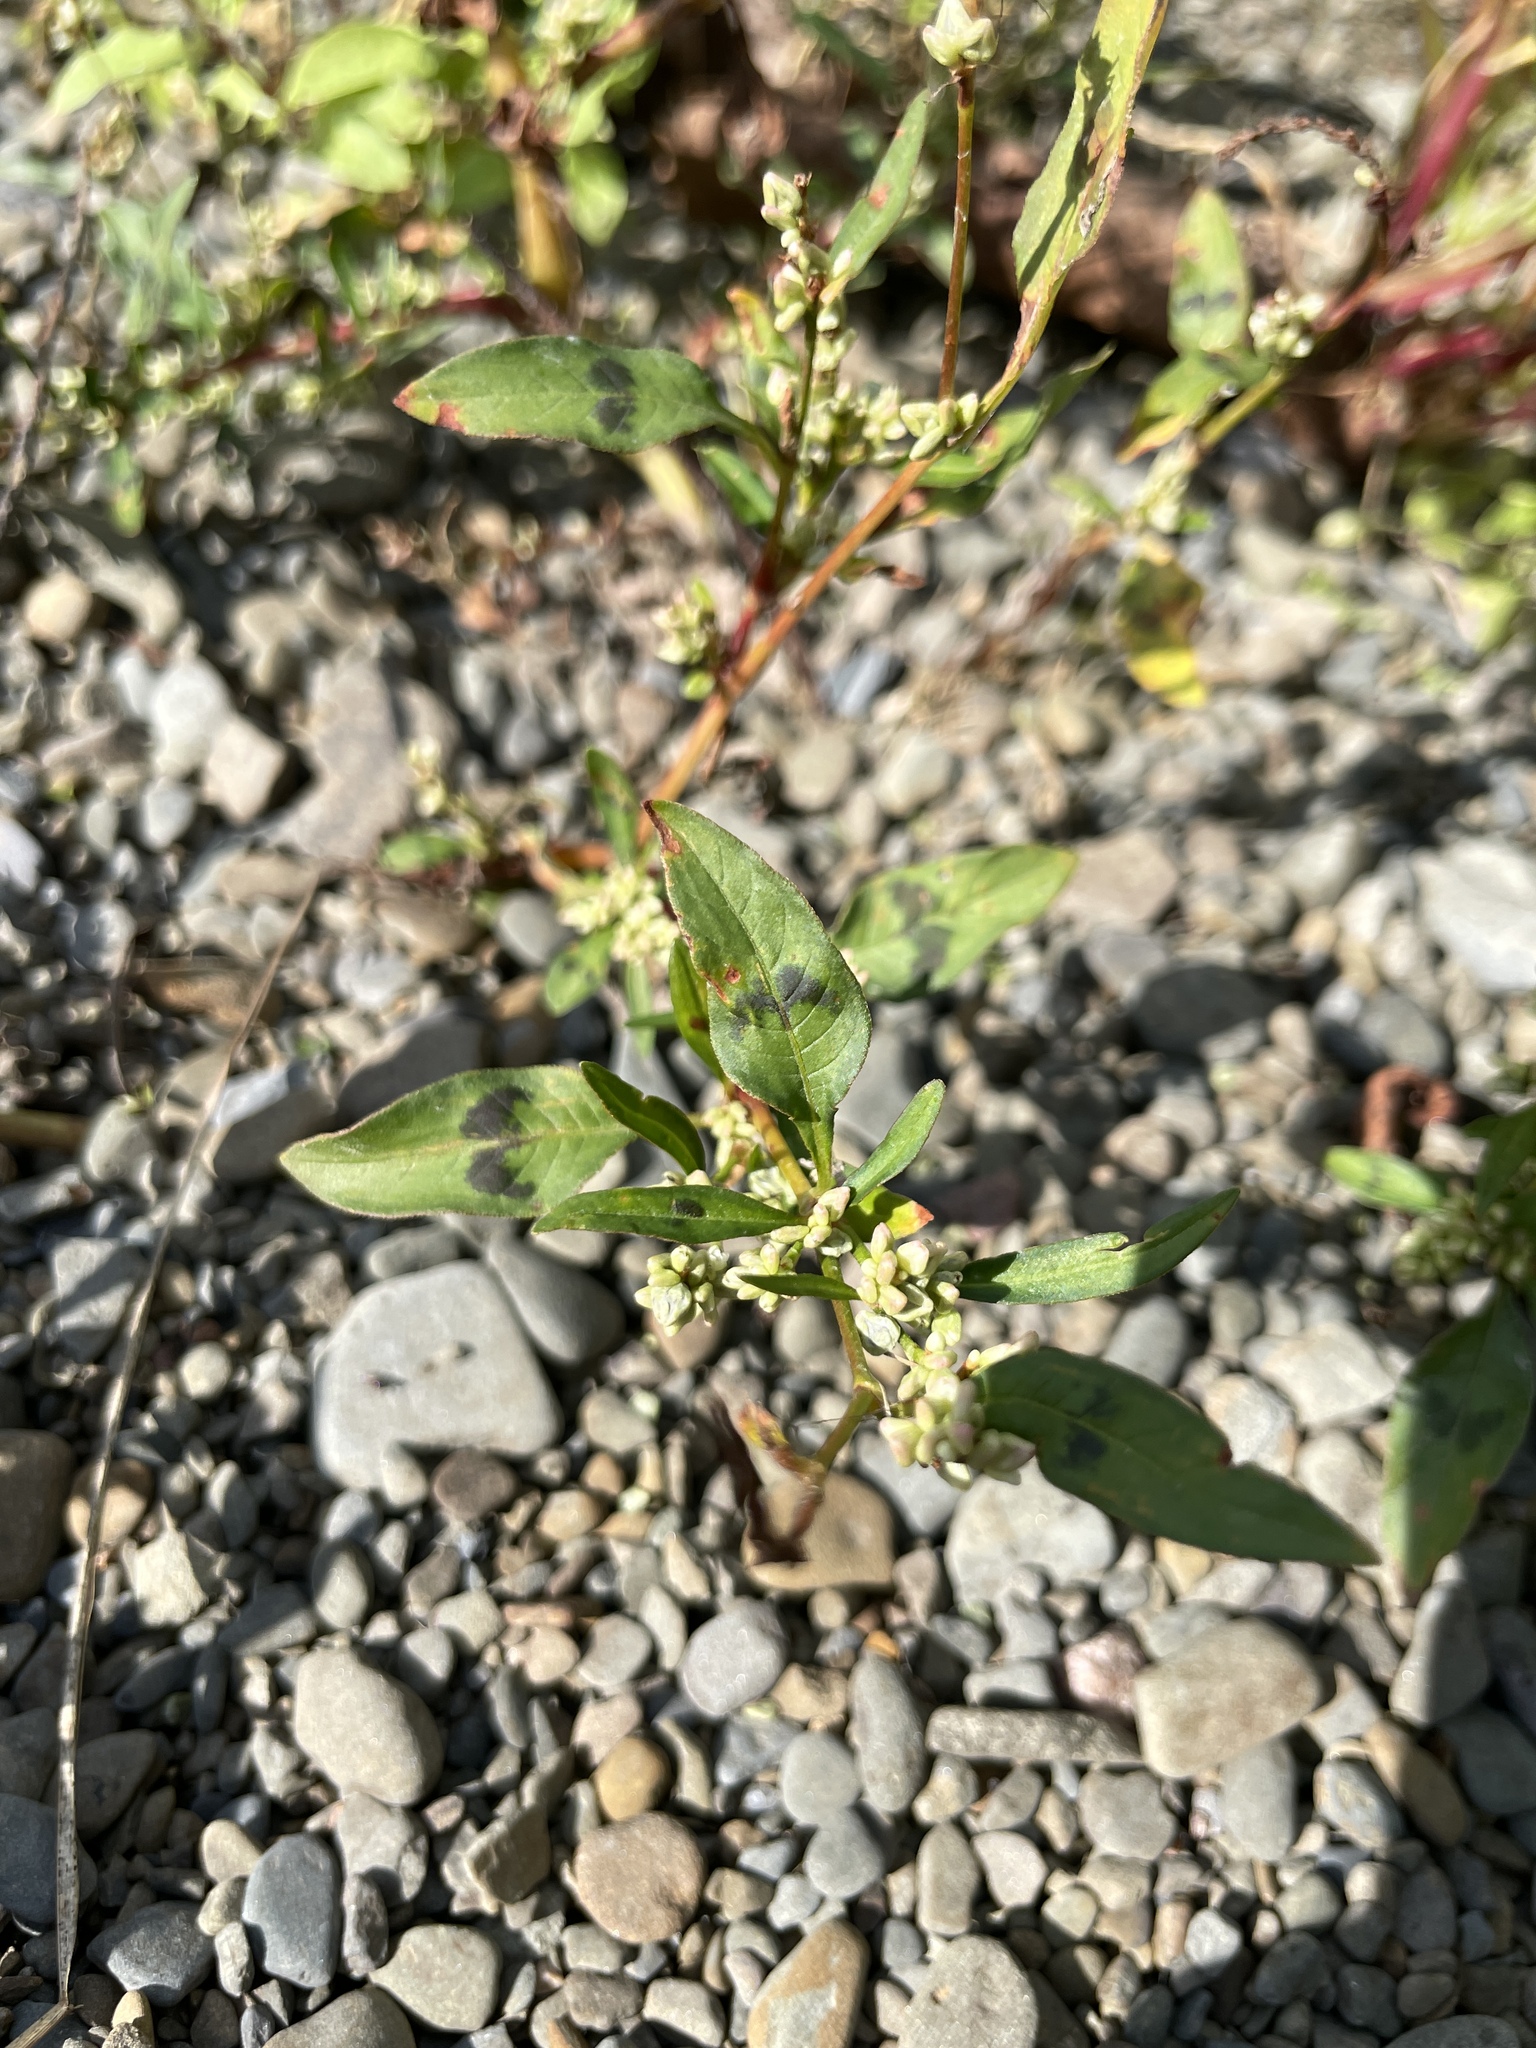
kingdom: Plantae
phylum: Tracheophyta
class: Magnoliopsida
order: Caryophyllales
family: Polygonaceae
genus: Persicaria
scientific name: Persicaria lapathifolia
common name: Curlytop knotweed
